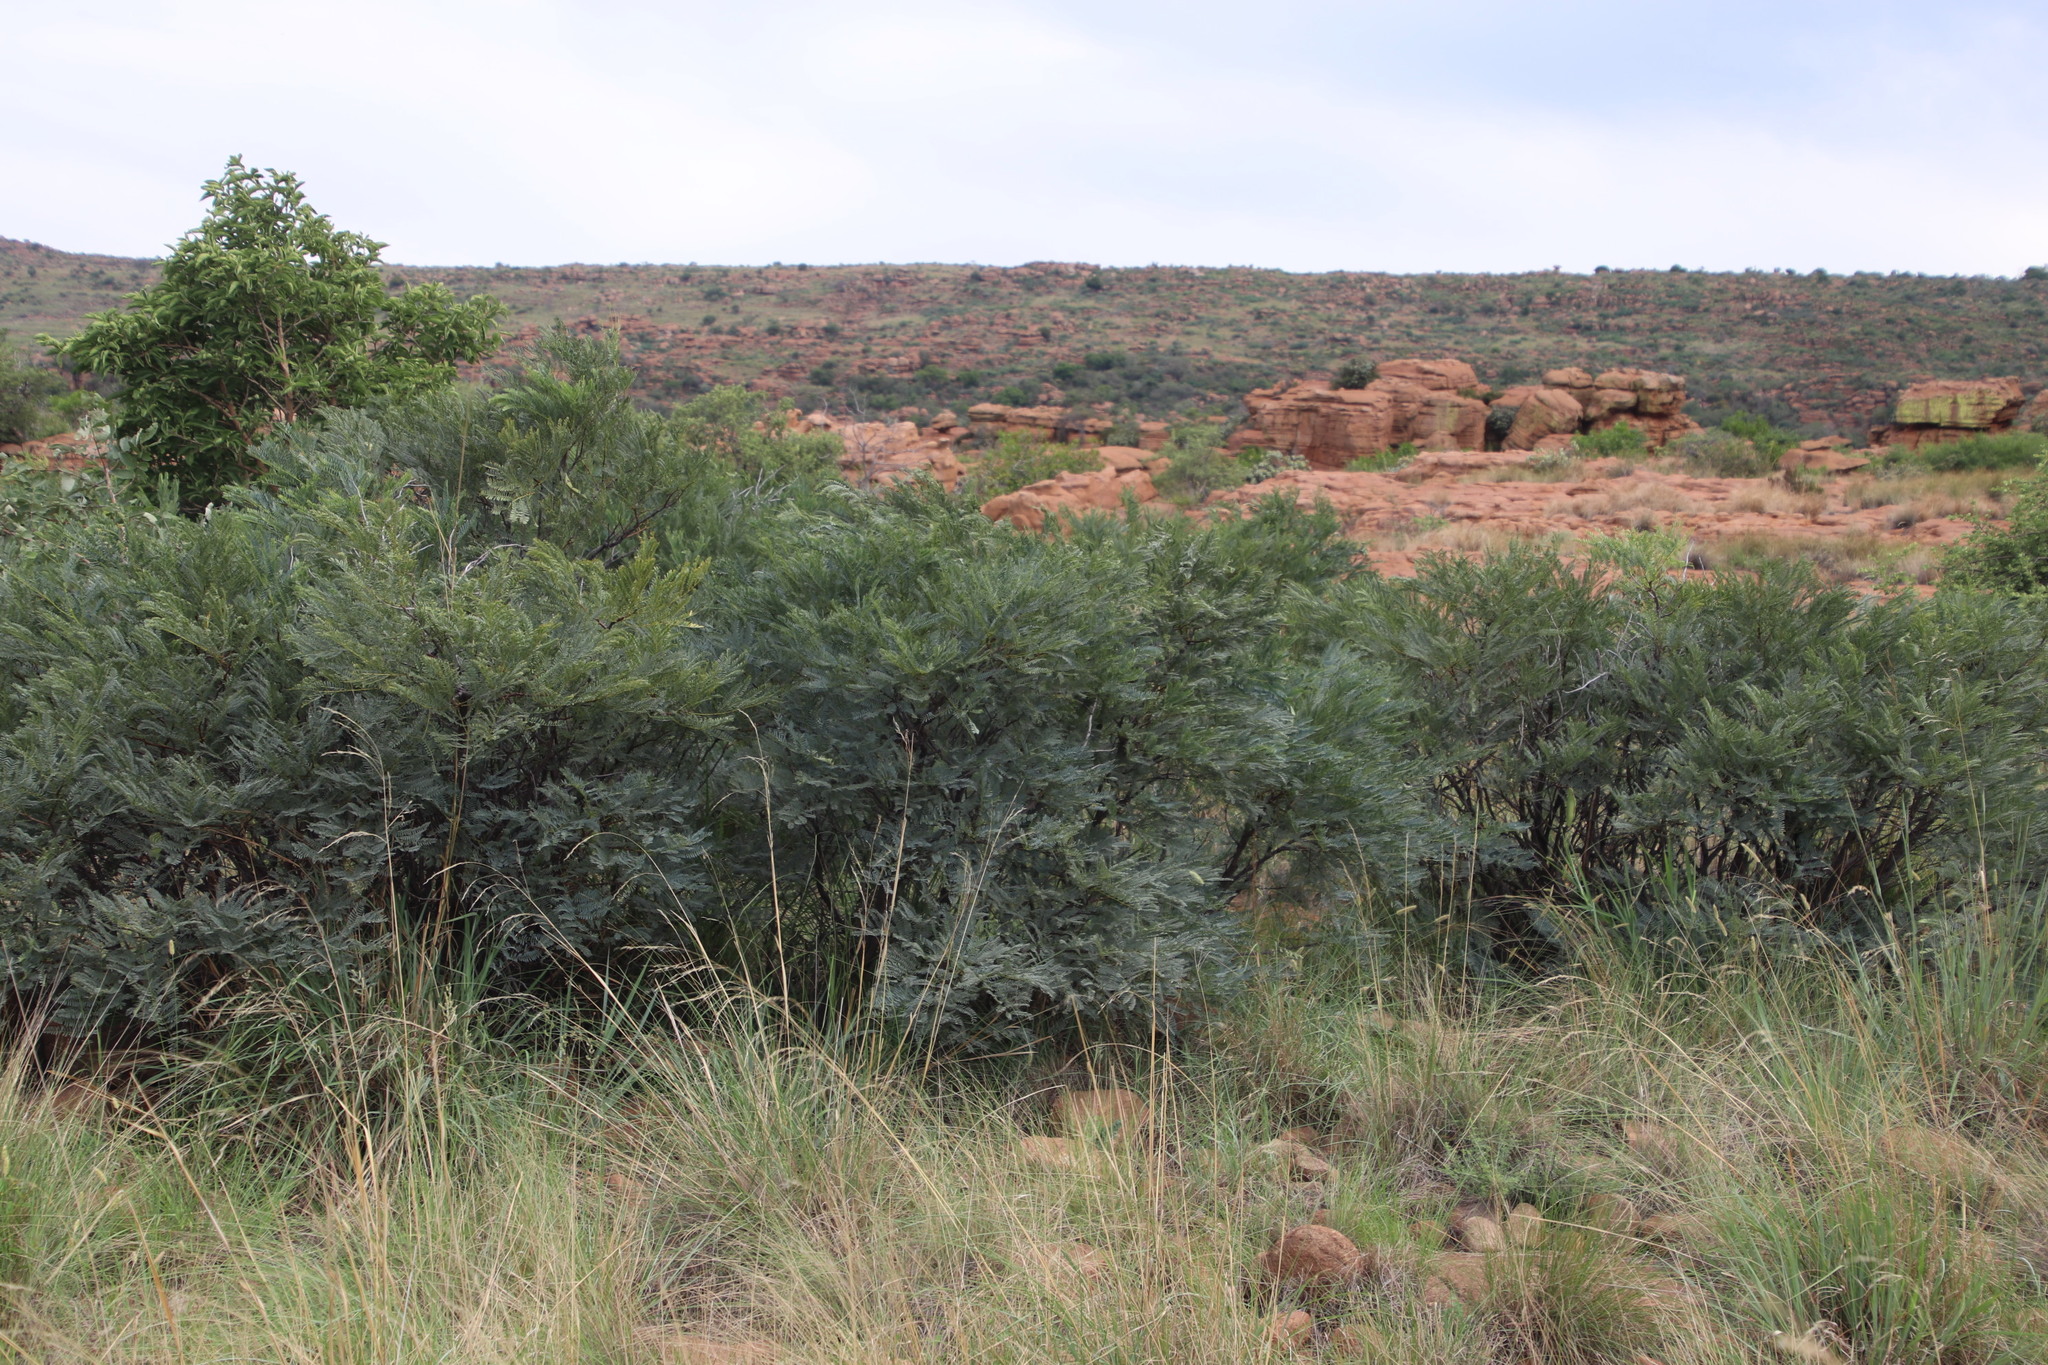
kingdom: Plantae
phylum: Tracheophyta
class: Magnoliopsida
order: Fabales
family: Fabaceae
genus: Elephantorrhiza
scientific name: Elephantorrhiza burkei
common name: Broad-pod elephant-root
